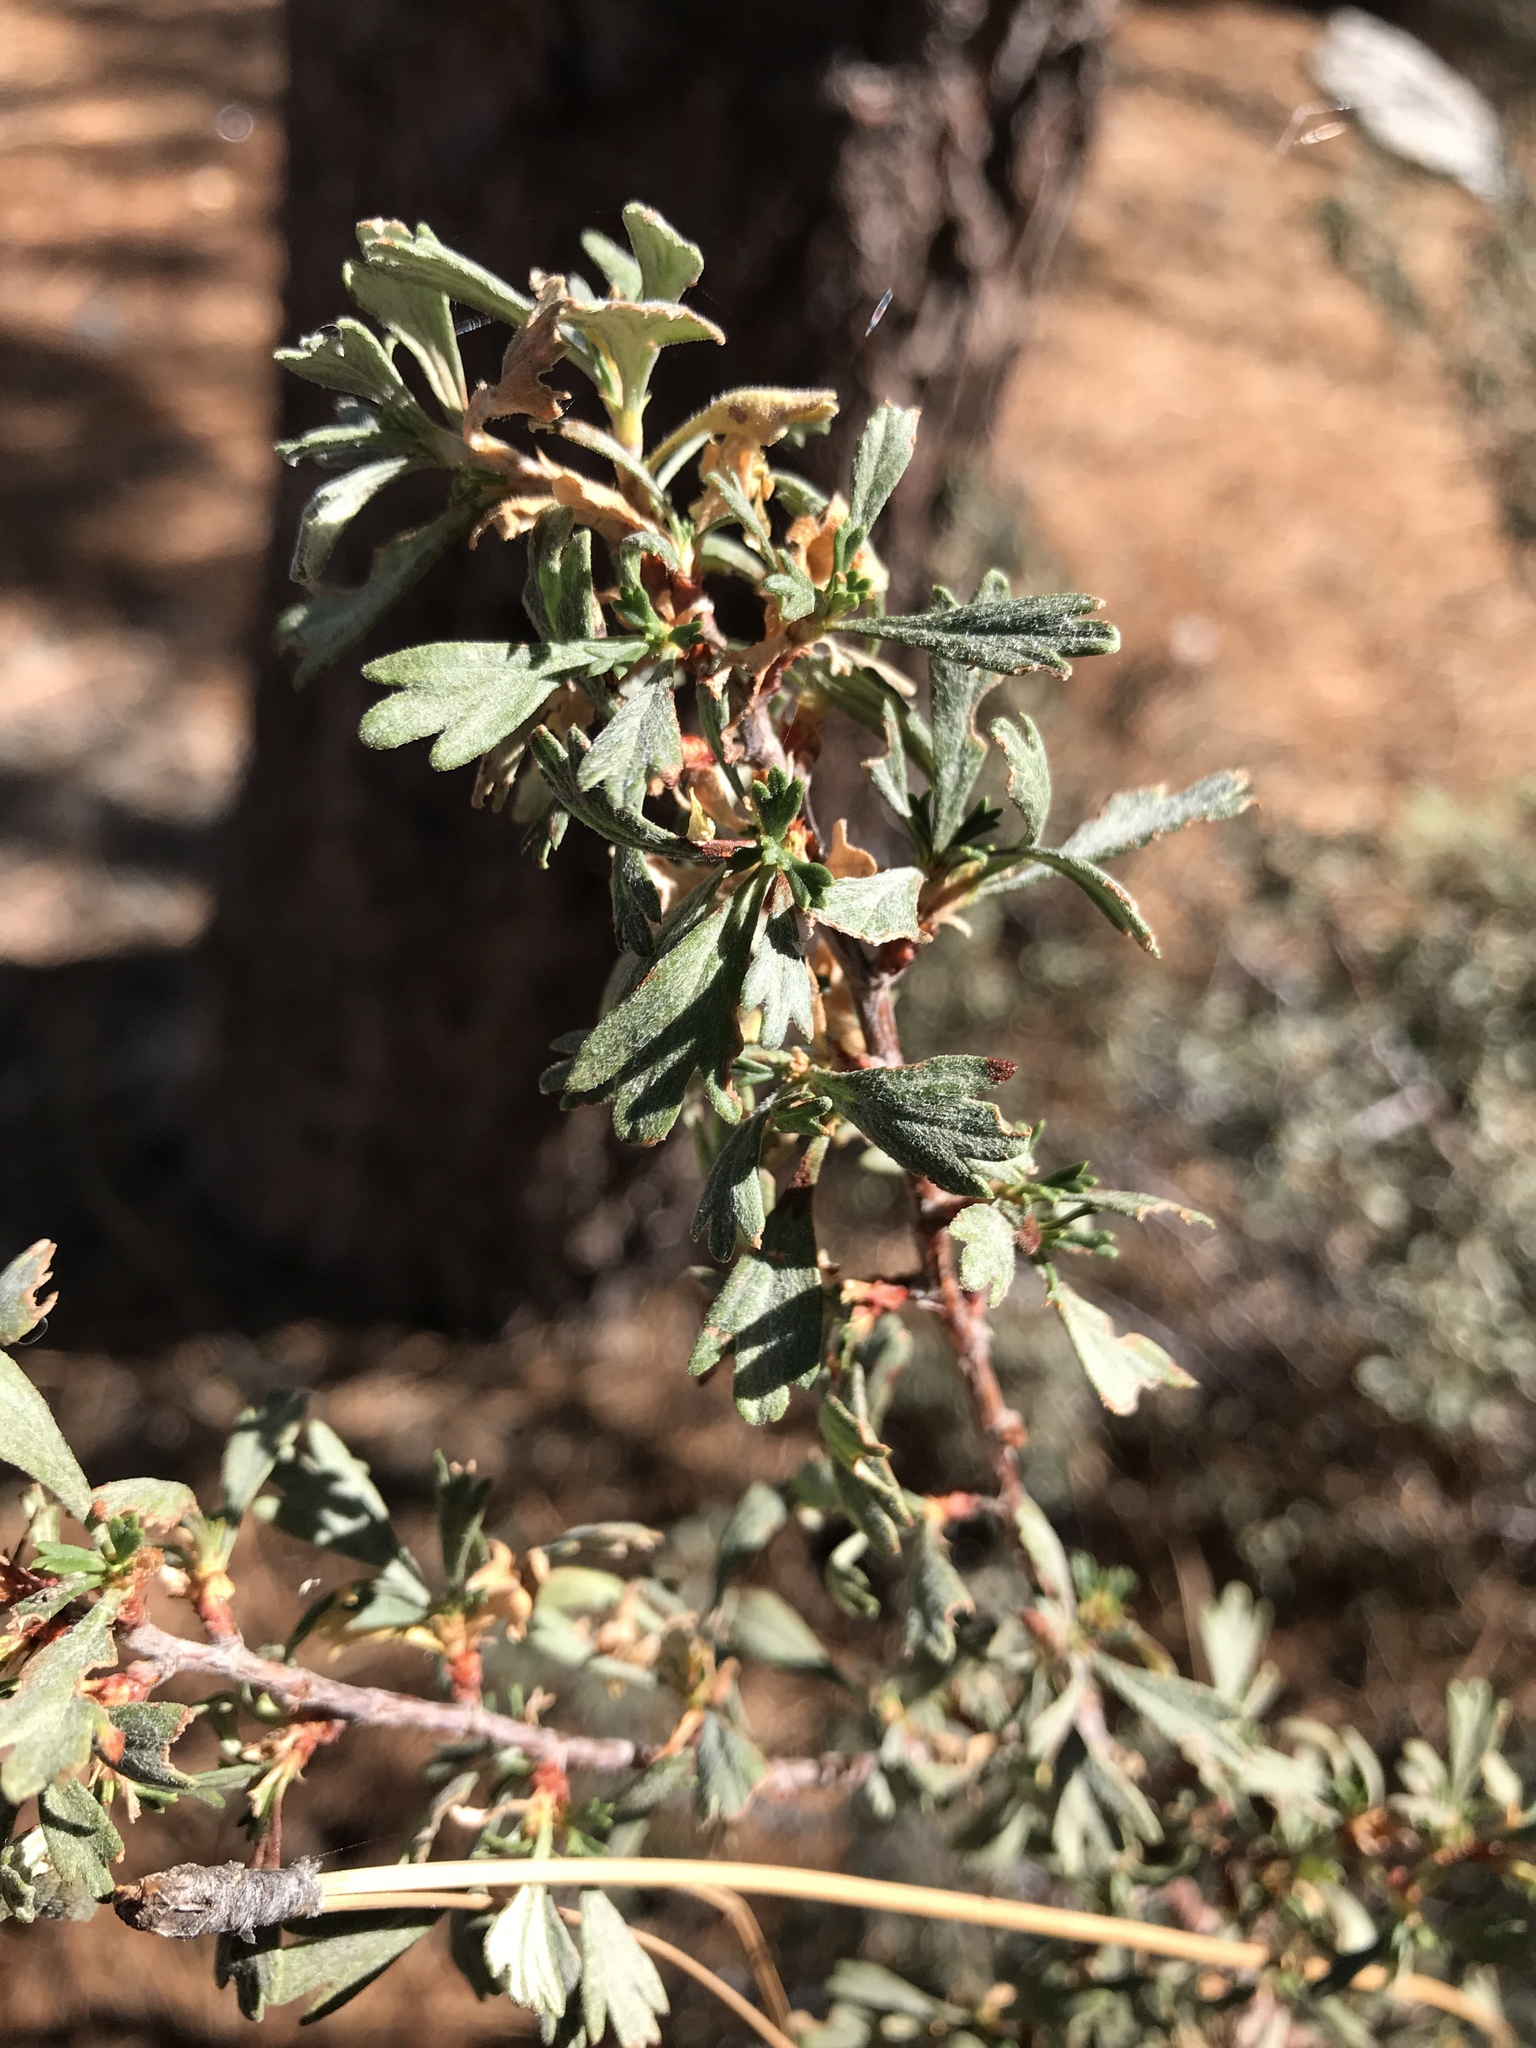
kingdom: Plantae
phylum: Tracheophyta
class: Magnoliopsida
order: Rosales
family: Rosaceae
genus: Purshia
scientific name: Purshia tridentata
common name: Antelope bitterbrush
